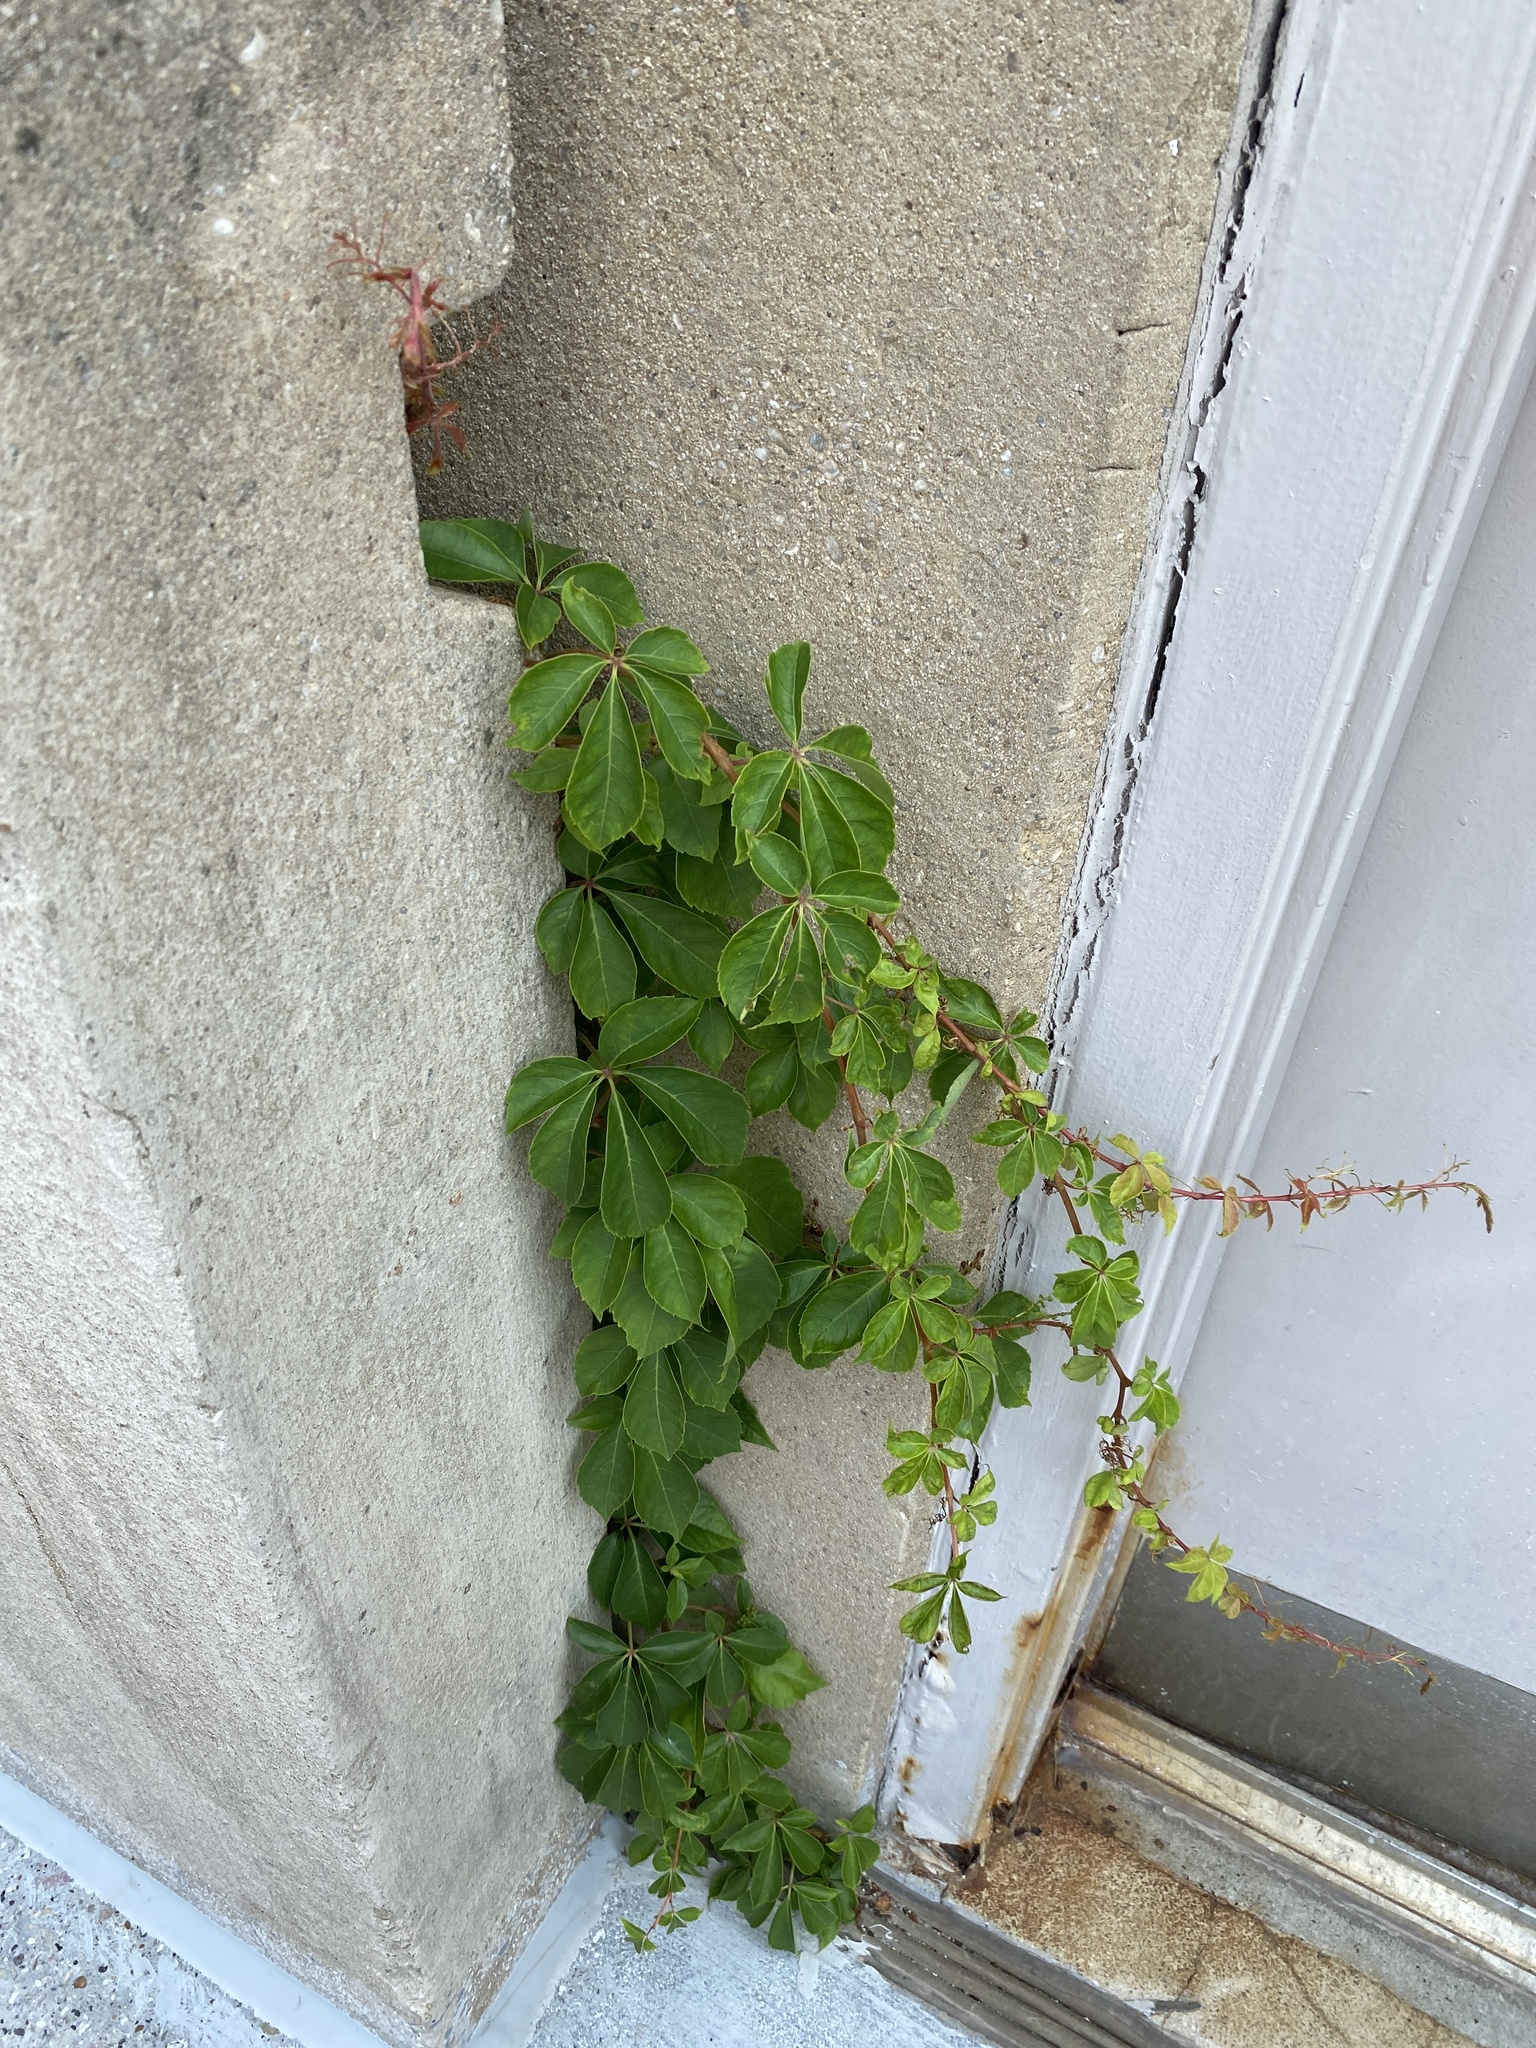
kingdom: Plantae
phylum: Tracheophyta
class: Magnoliopsida
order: Vitales
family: Vitaceae
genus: Parthenocissus
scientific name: Parthenocissus quinquefolia
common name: Virginia-creeper
